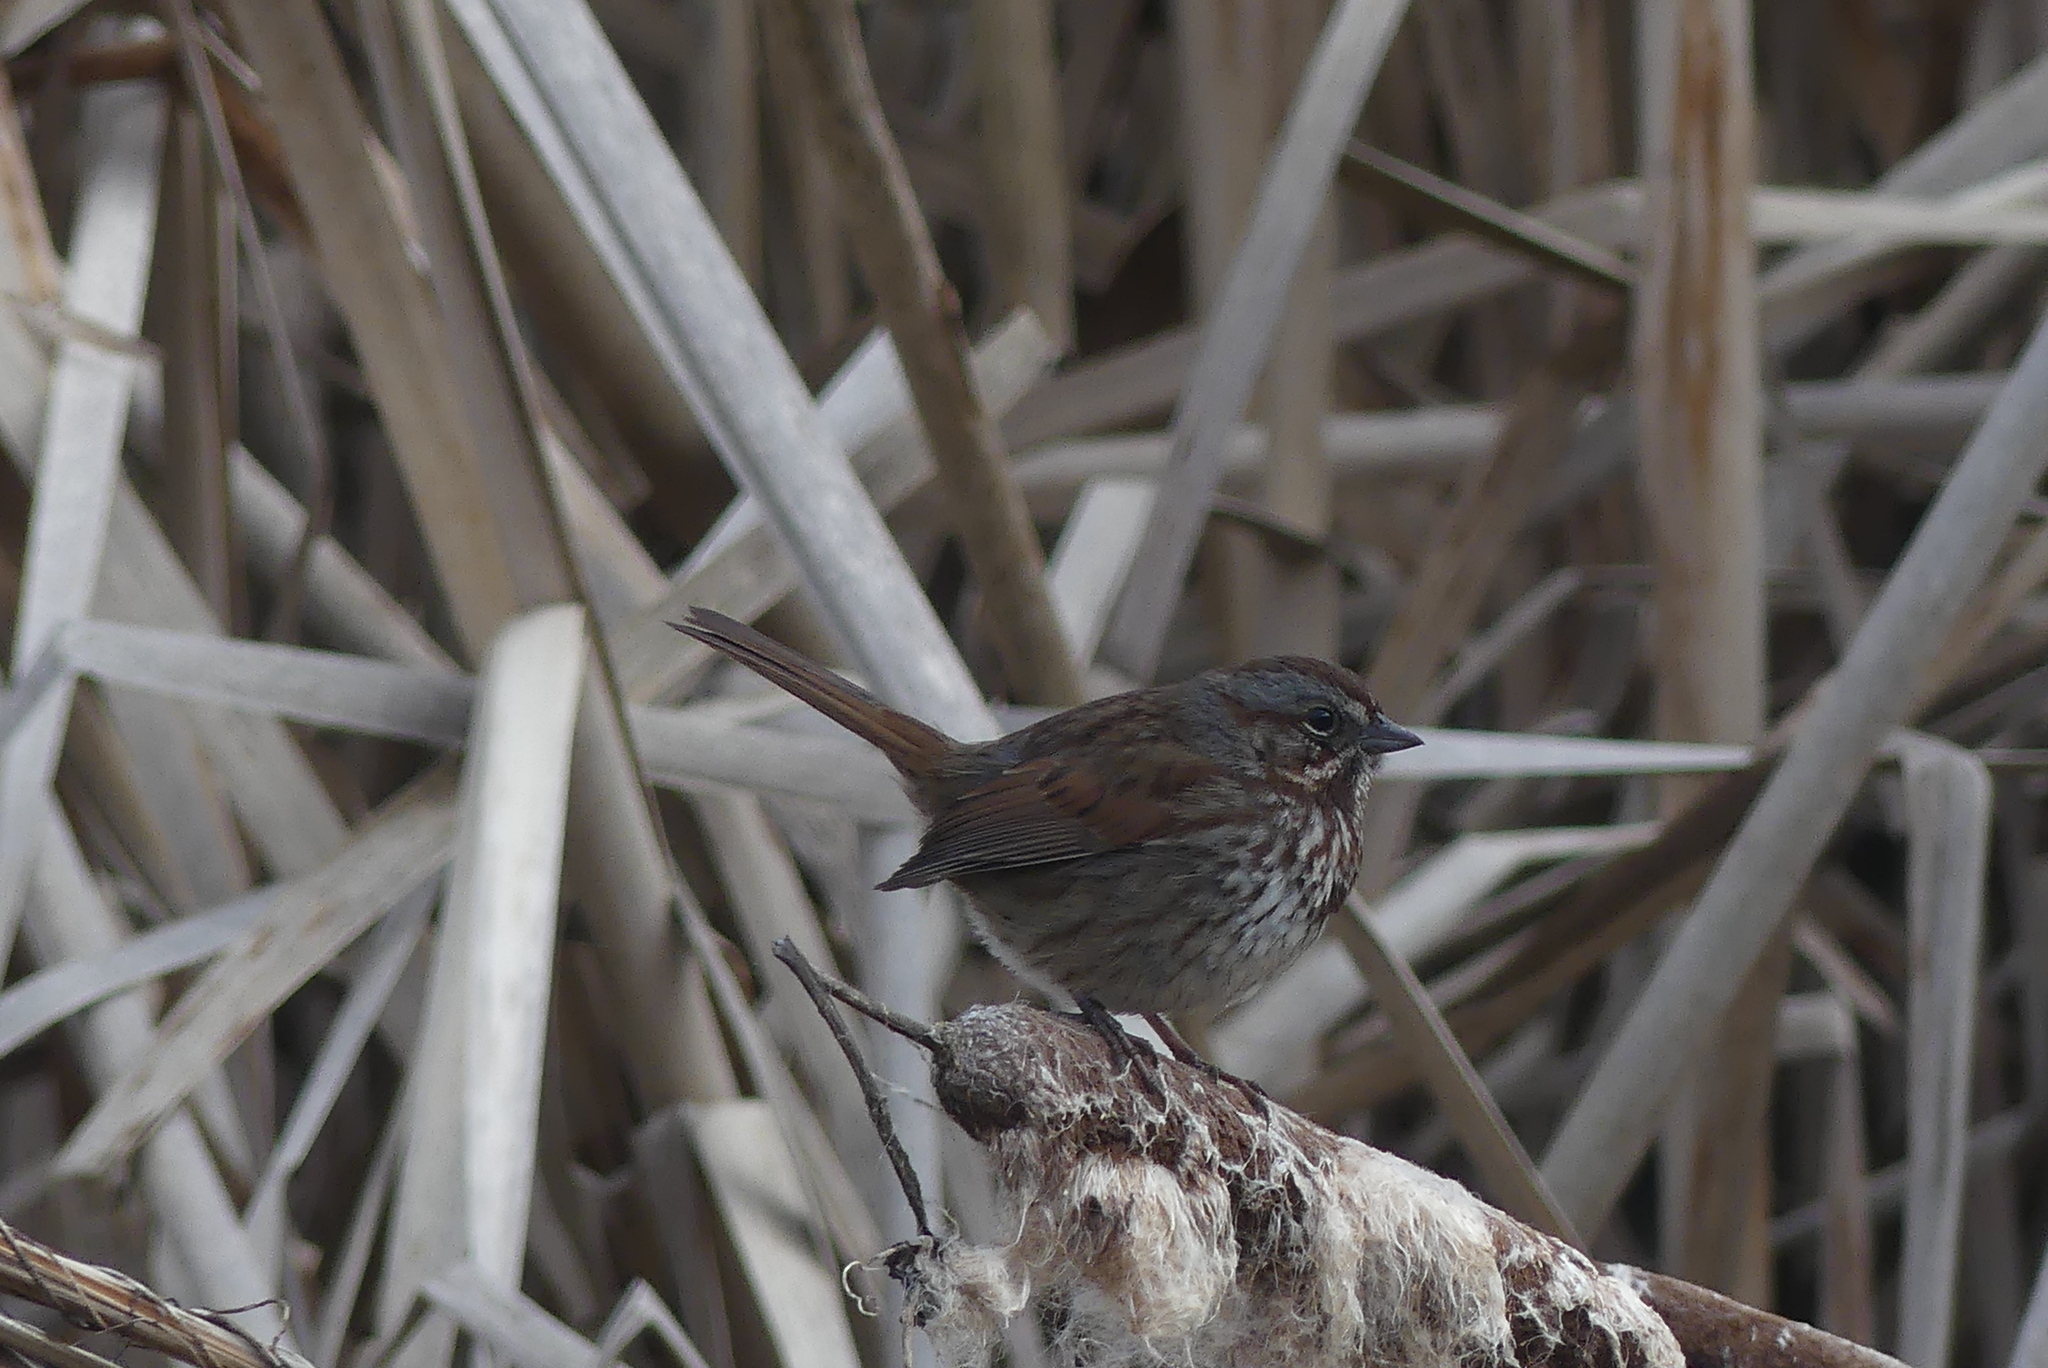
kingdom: Animalia
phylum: Chordata
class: Aves
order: Passeriformes
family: Passerellidae
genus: Melospiza
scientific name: Melospiza melodia
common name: Song sparrow
